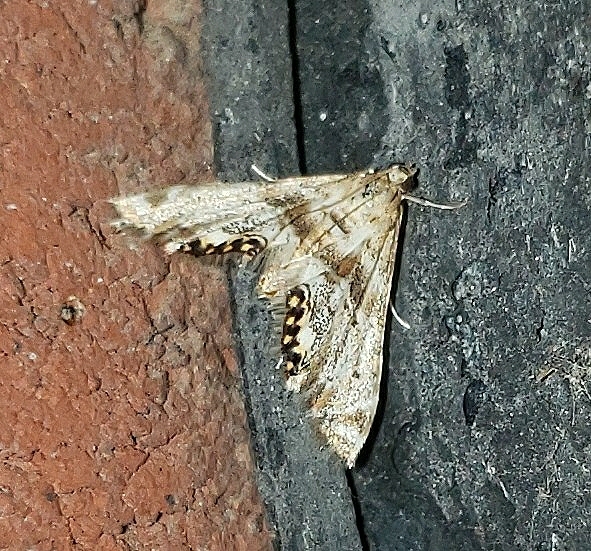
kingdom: Animalia
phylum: Arthropoda
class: Insecta
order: Lepidoptera
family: Crambidae
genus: Petrophila
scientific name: Petrophila fulicalis
